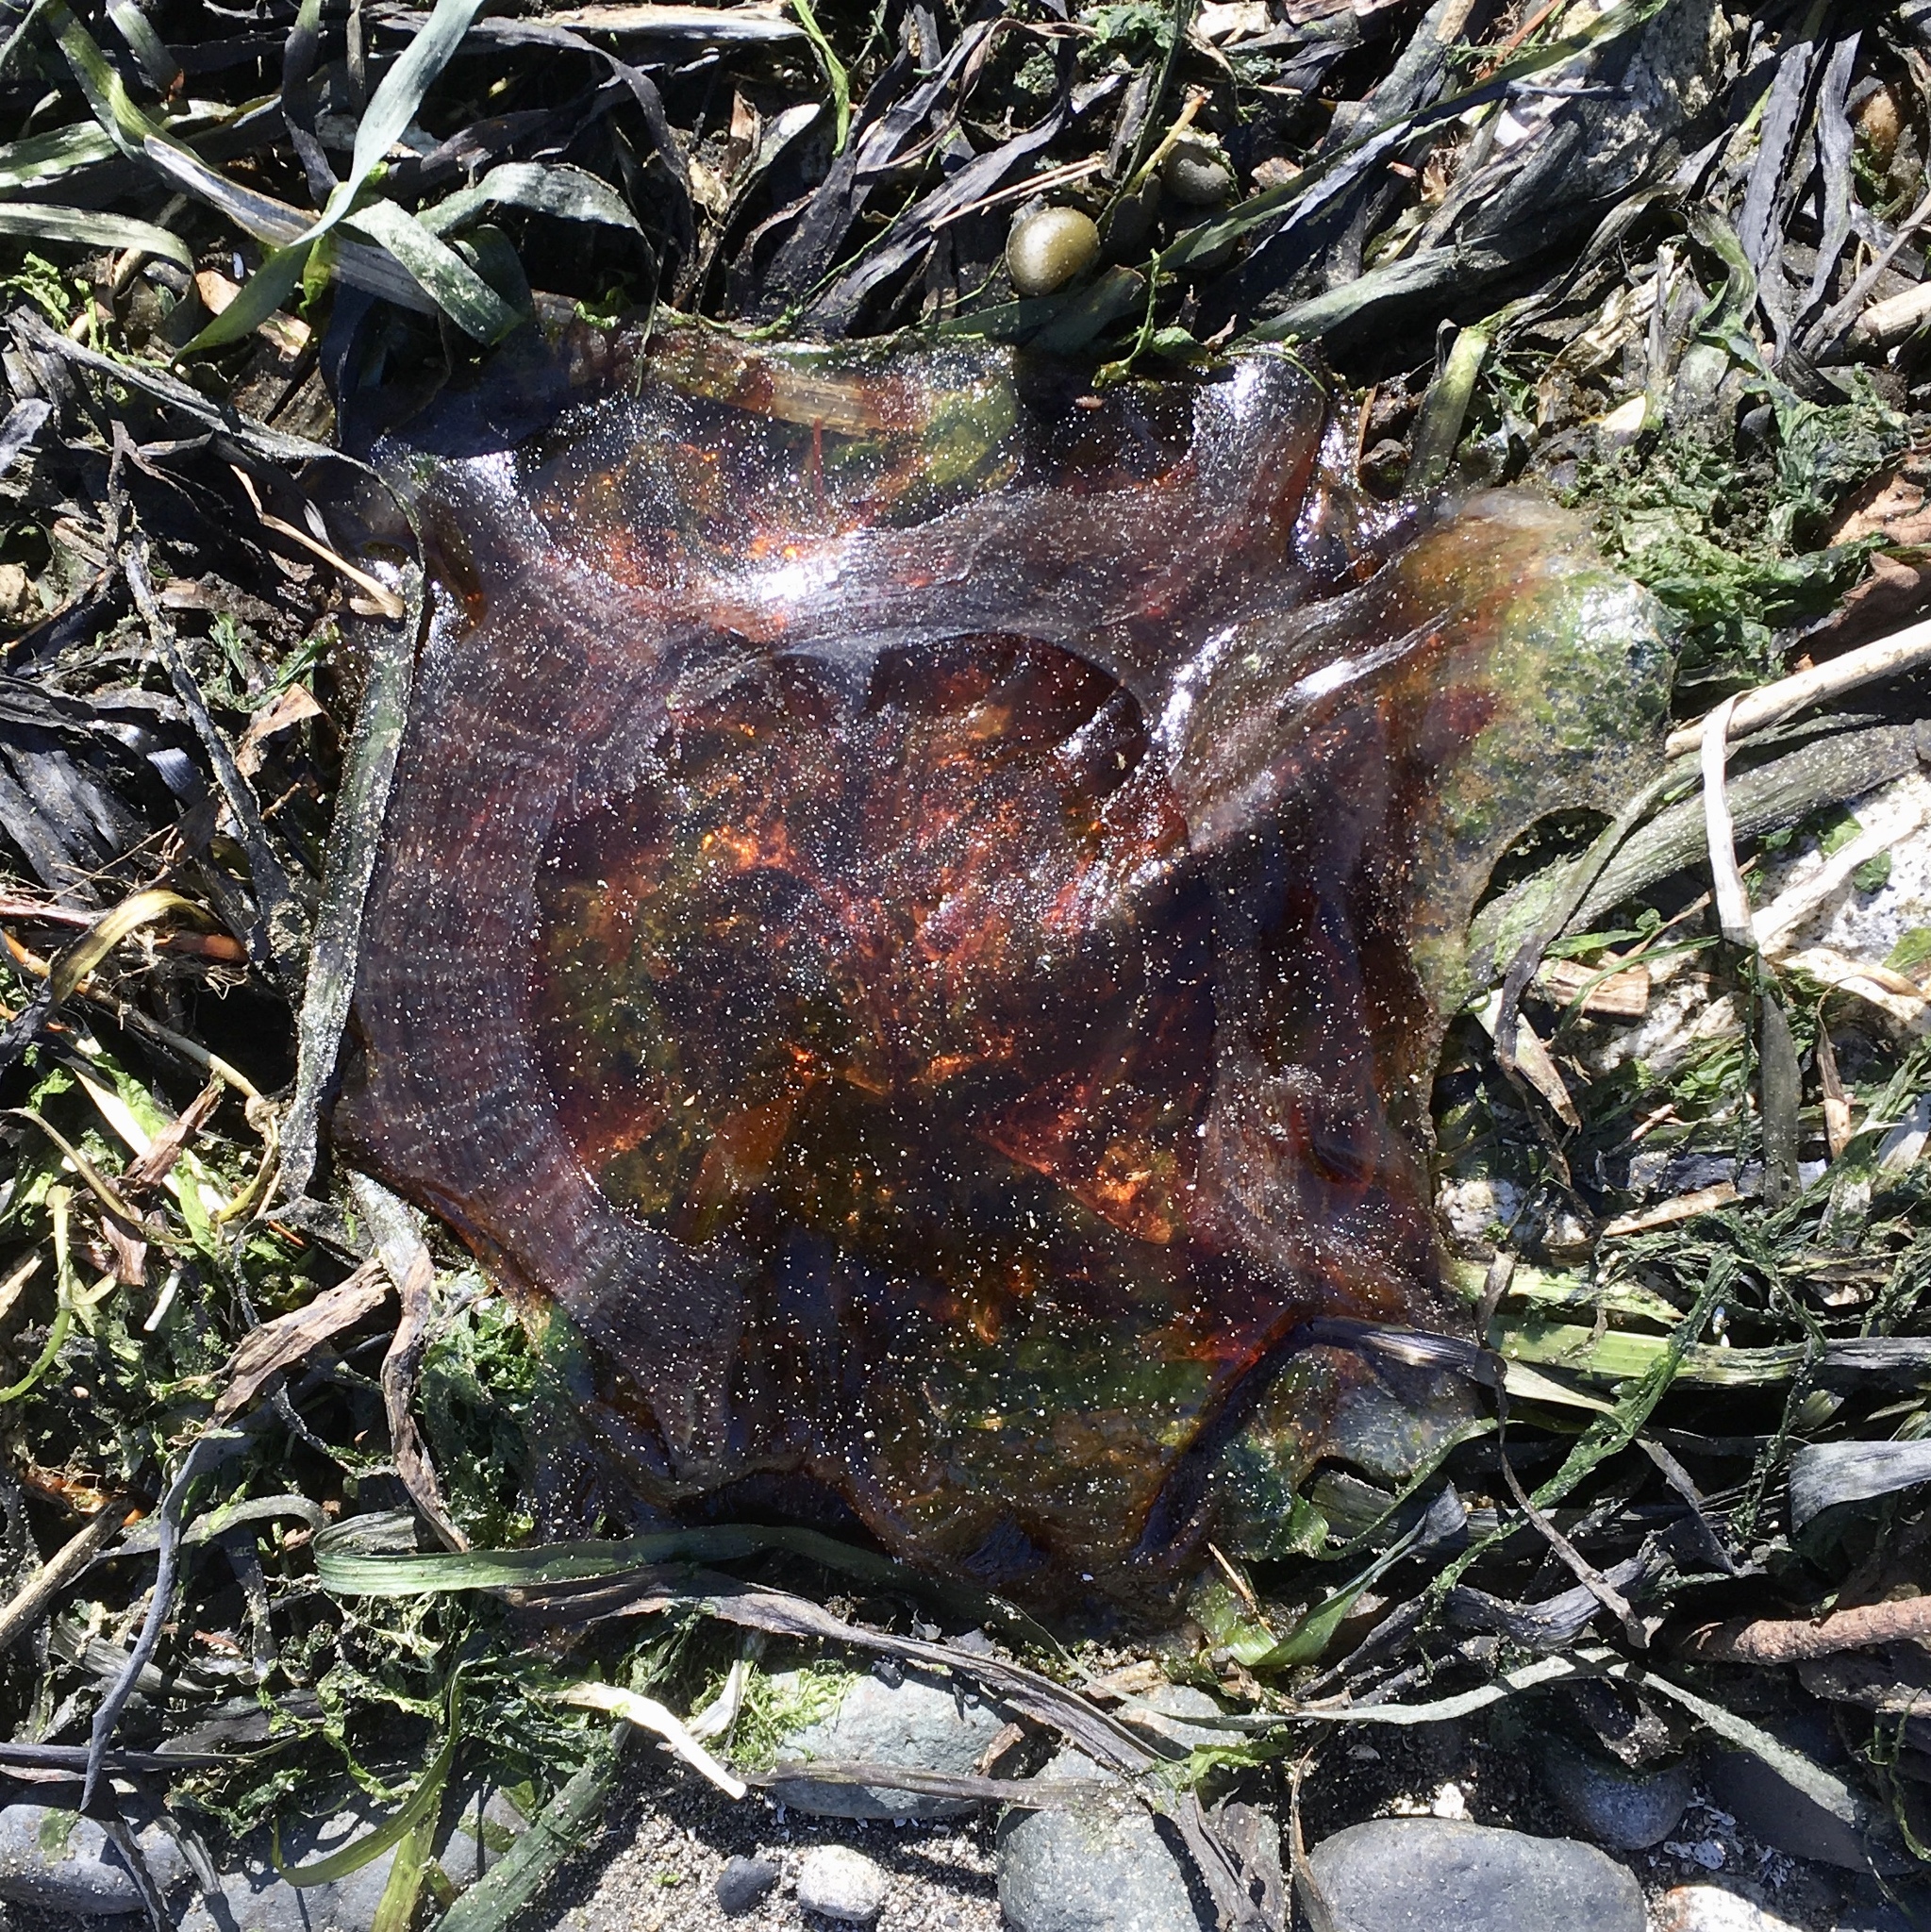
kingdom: Animalia
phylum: Cnidaria
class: Scyphozoa
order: Semaeostomeae
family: Cyaneidae
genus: Cyanea
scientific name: Cyanea ferruginea
